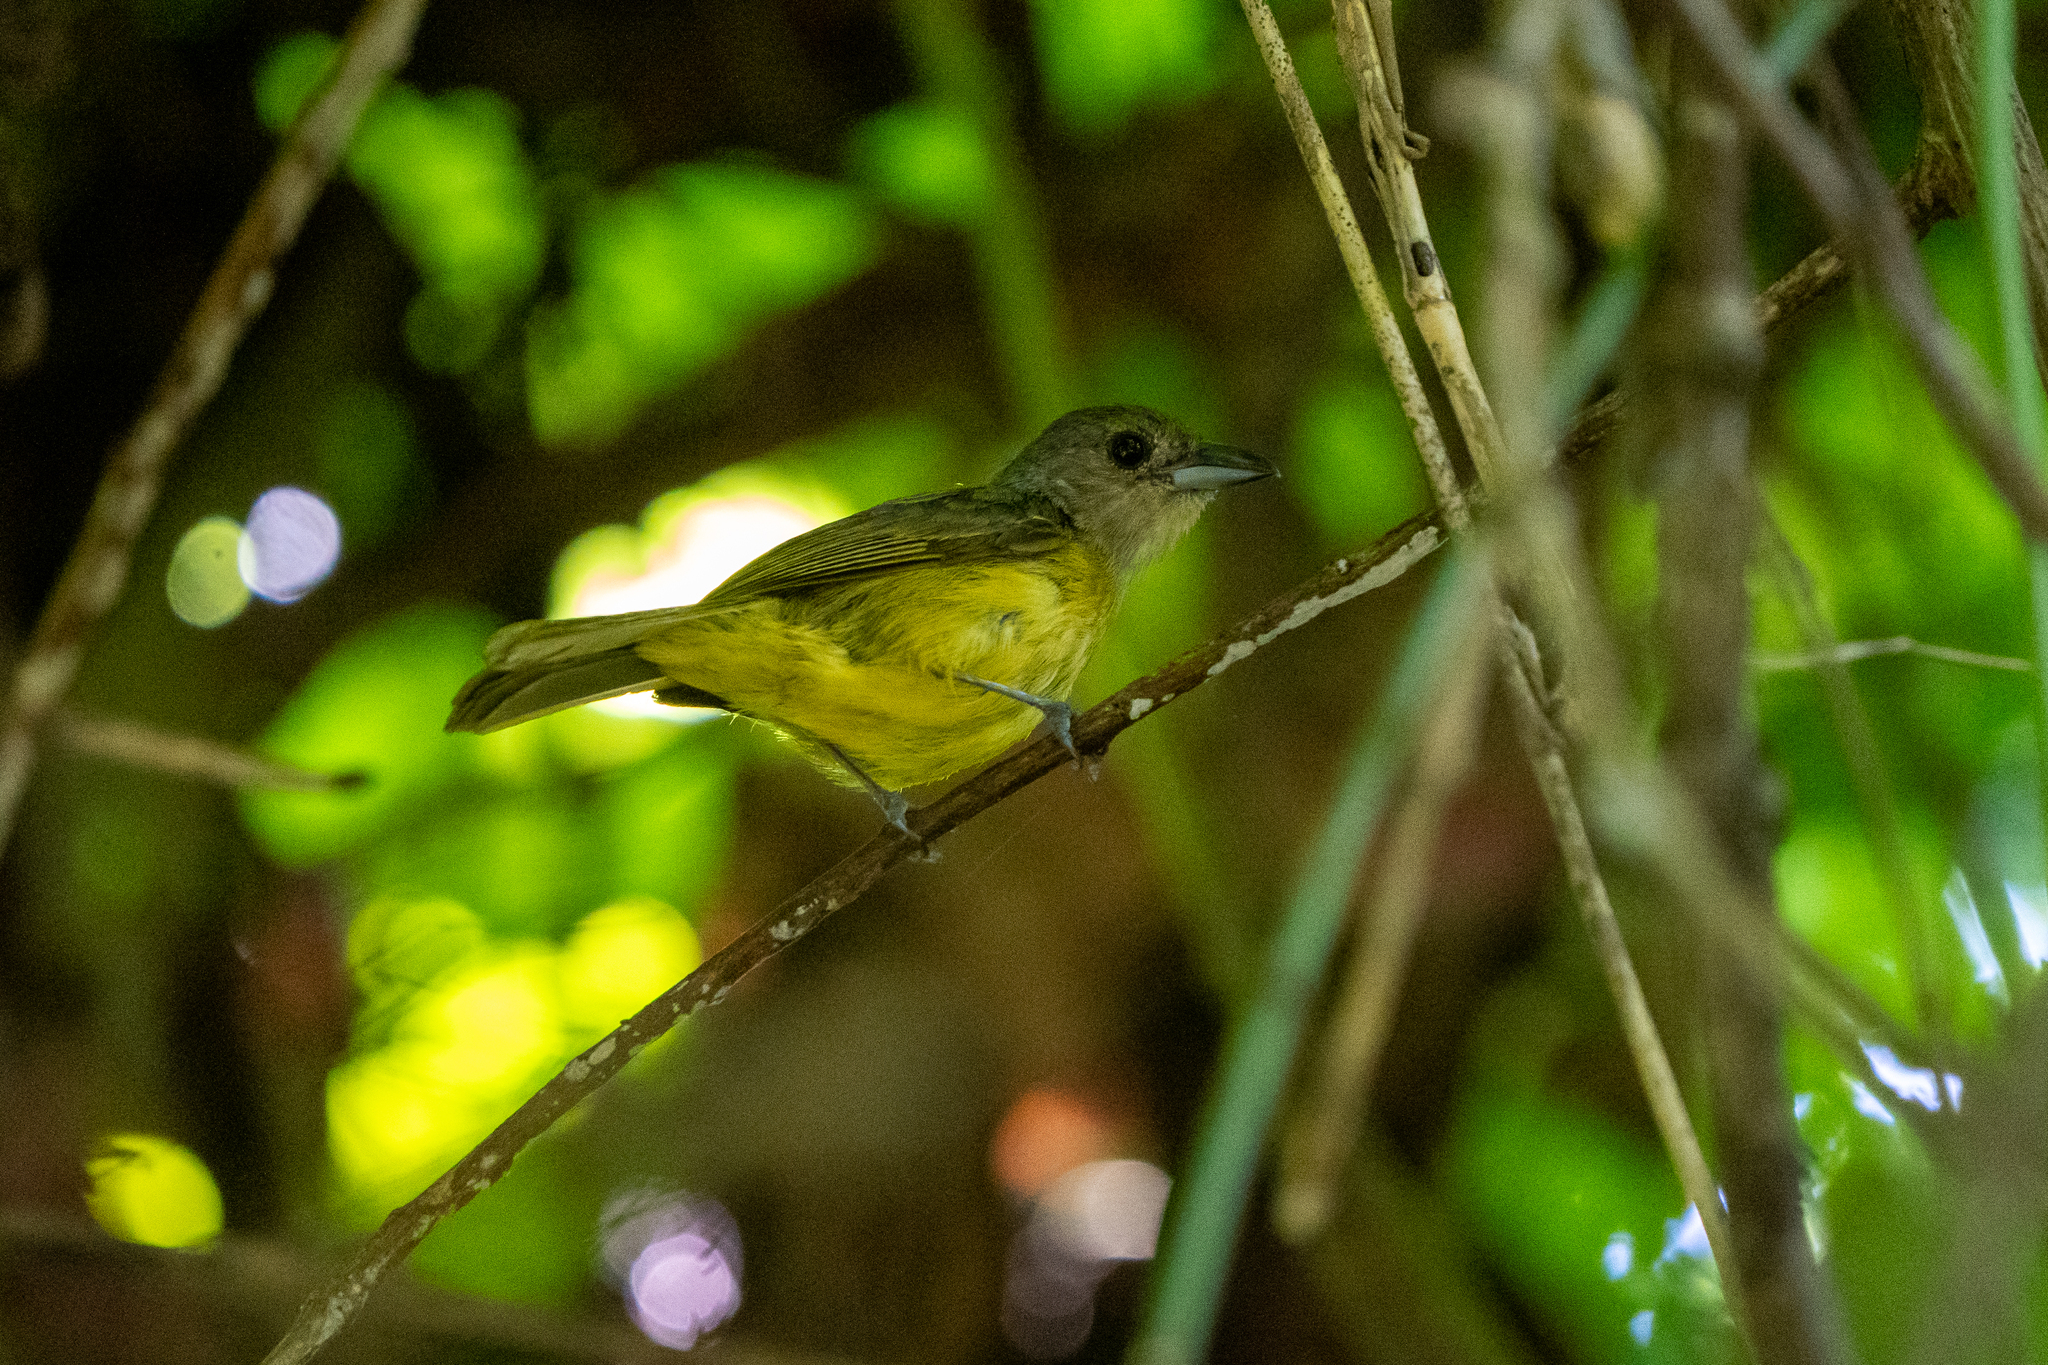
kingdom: Animalia
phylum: Chordata
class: Aves
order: Passeriformes
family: Thraupidae
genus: Loriotus
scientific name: Loriotus luctuosus
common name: White-shouldered tanager
